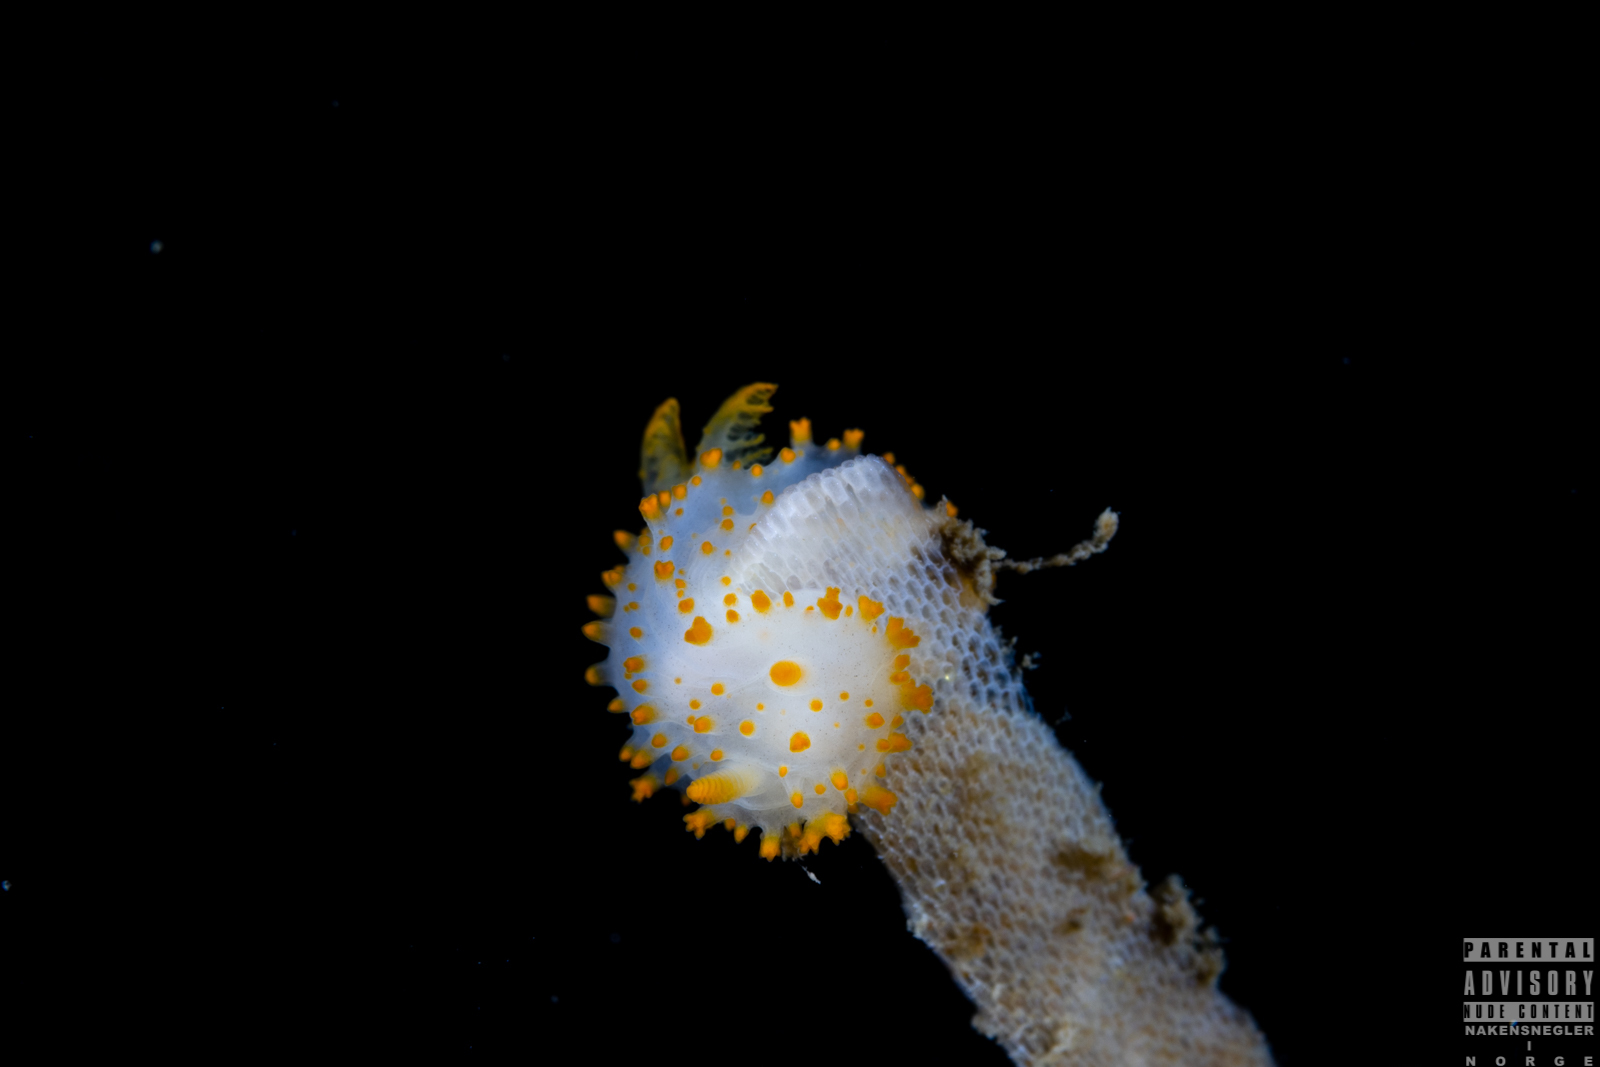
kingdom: Animalia
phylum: Mollusca
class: Gastropoda
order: Nudibranchia
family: Polyceridae
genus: Crimora
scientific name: Crimora papillata
